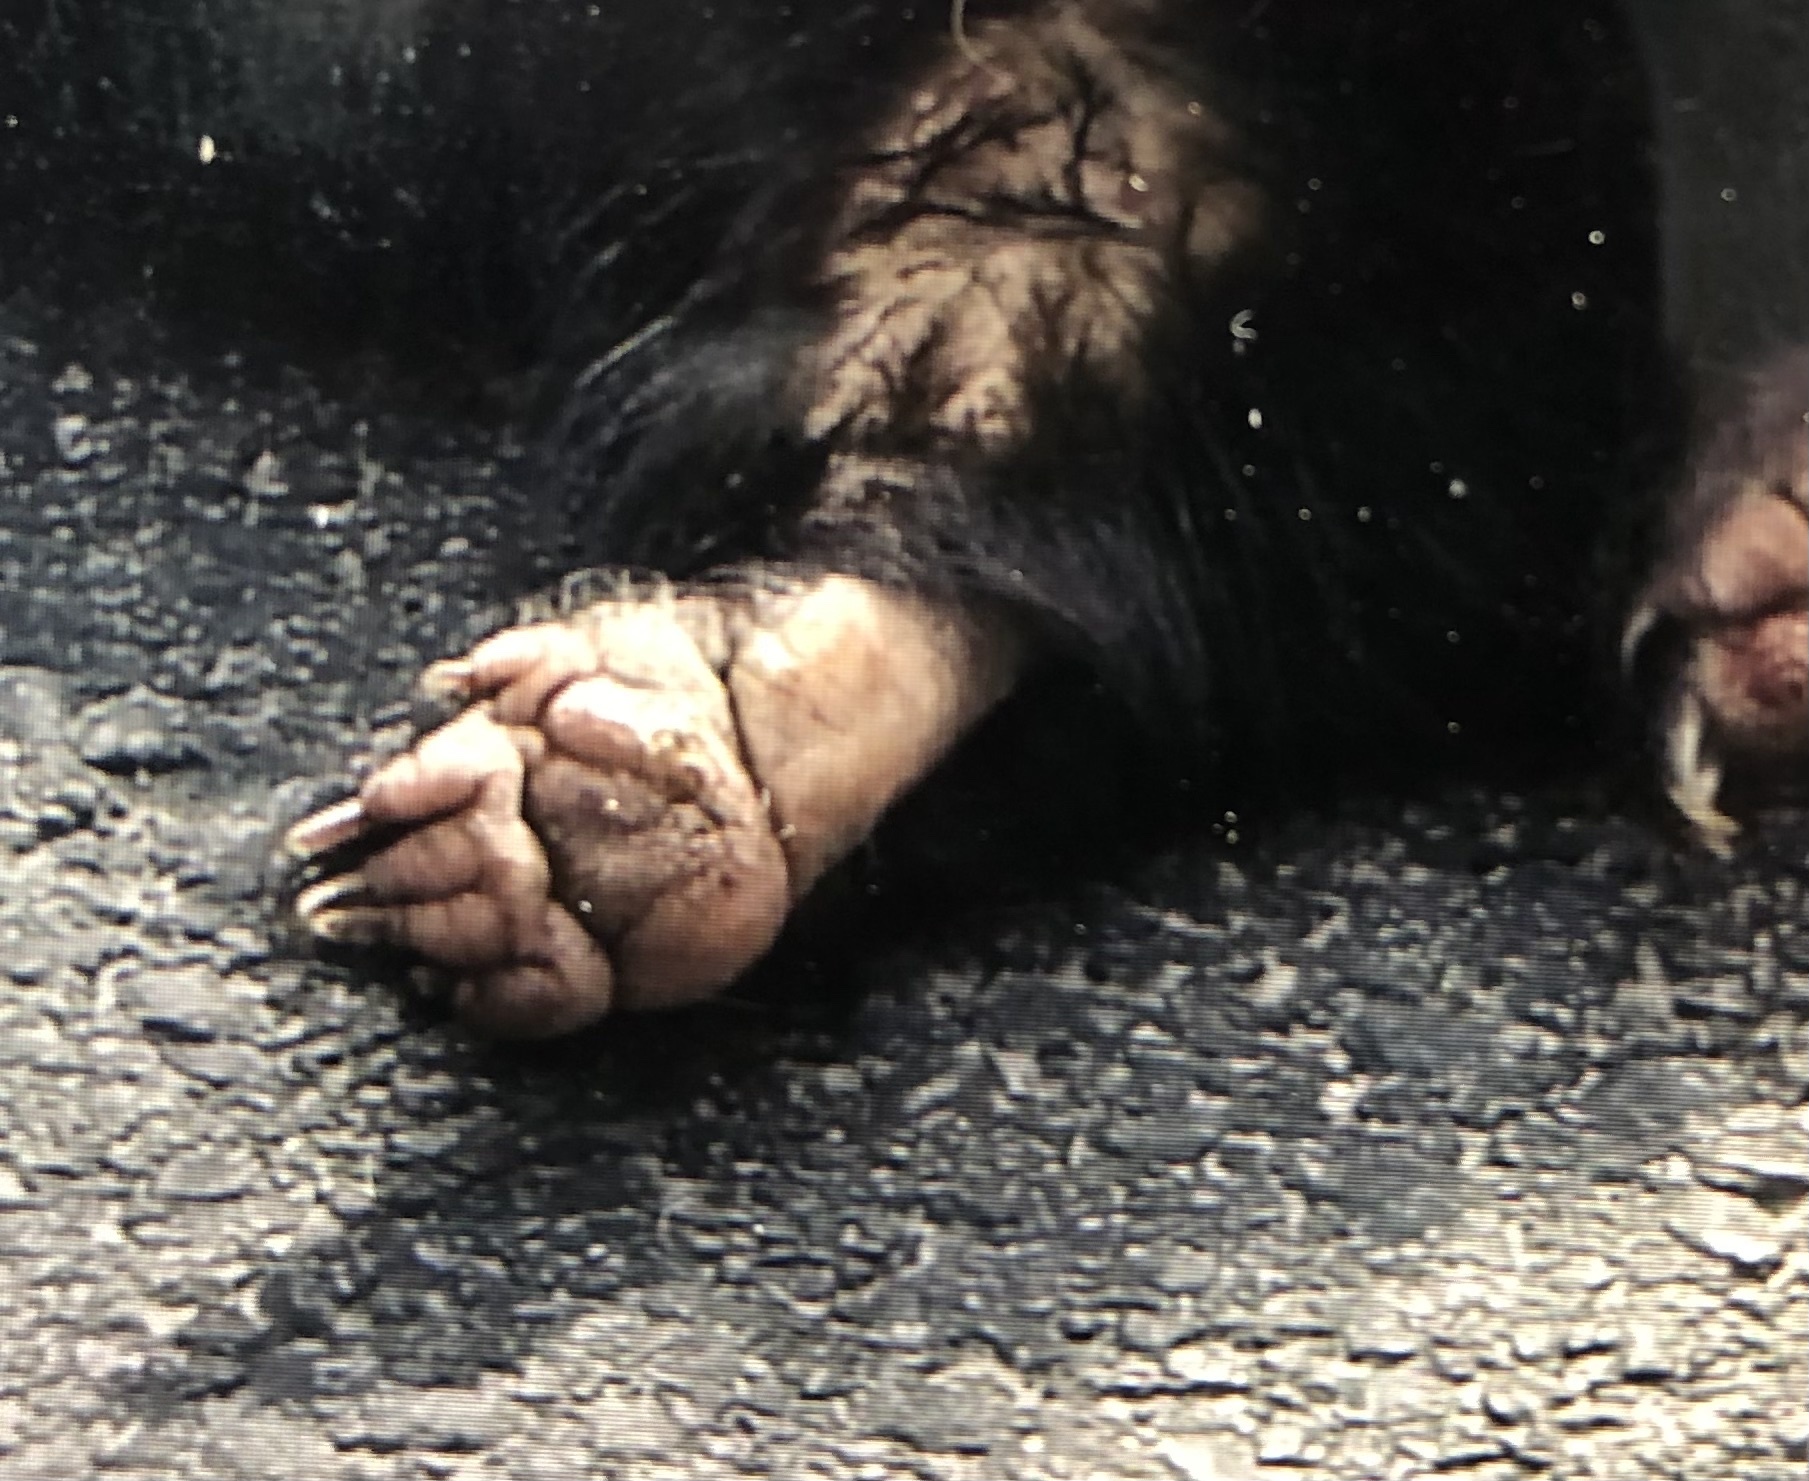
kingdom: Animalia
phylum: Chordata
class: Mammalia
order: Carnivora
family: Mephitidae
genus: Mephitis
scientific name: Mephitis mephitis
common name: Striped skunk
